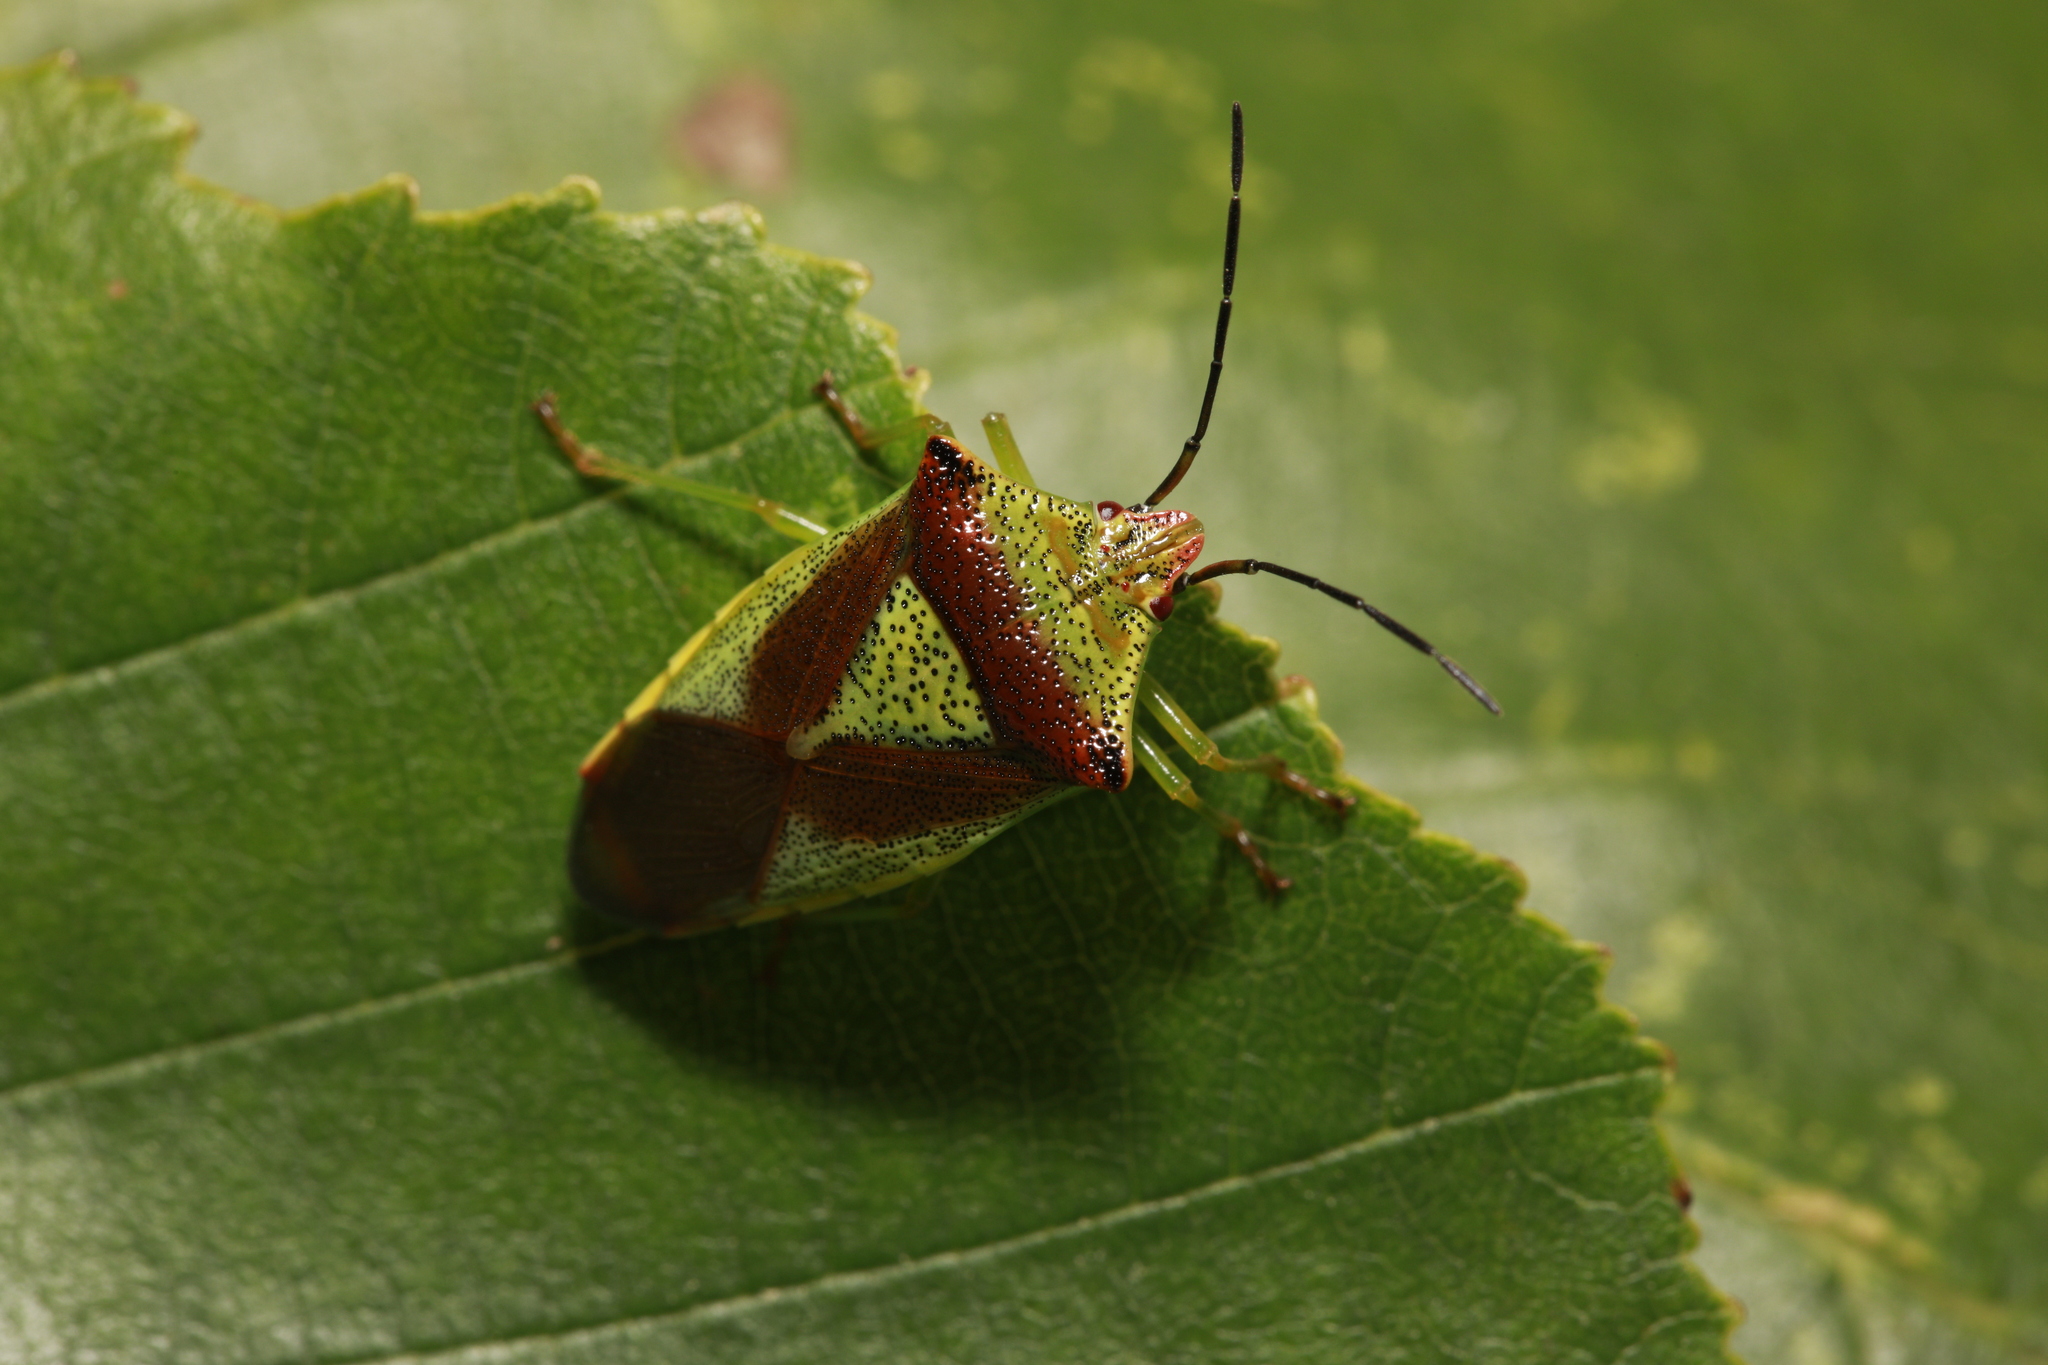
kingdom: Animalia
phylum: Arthropoda
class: Insecta
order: Hemiptera
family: Acanthosomatidae
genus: Acanthosoma
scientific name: Acanthosoma haemorrhoidale
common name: Hawthorn shieldbug
